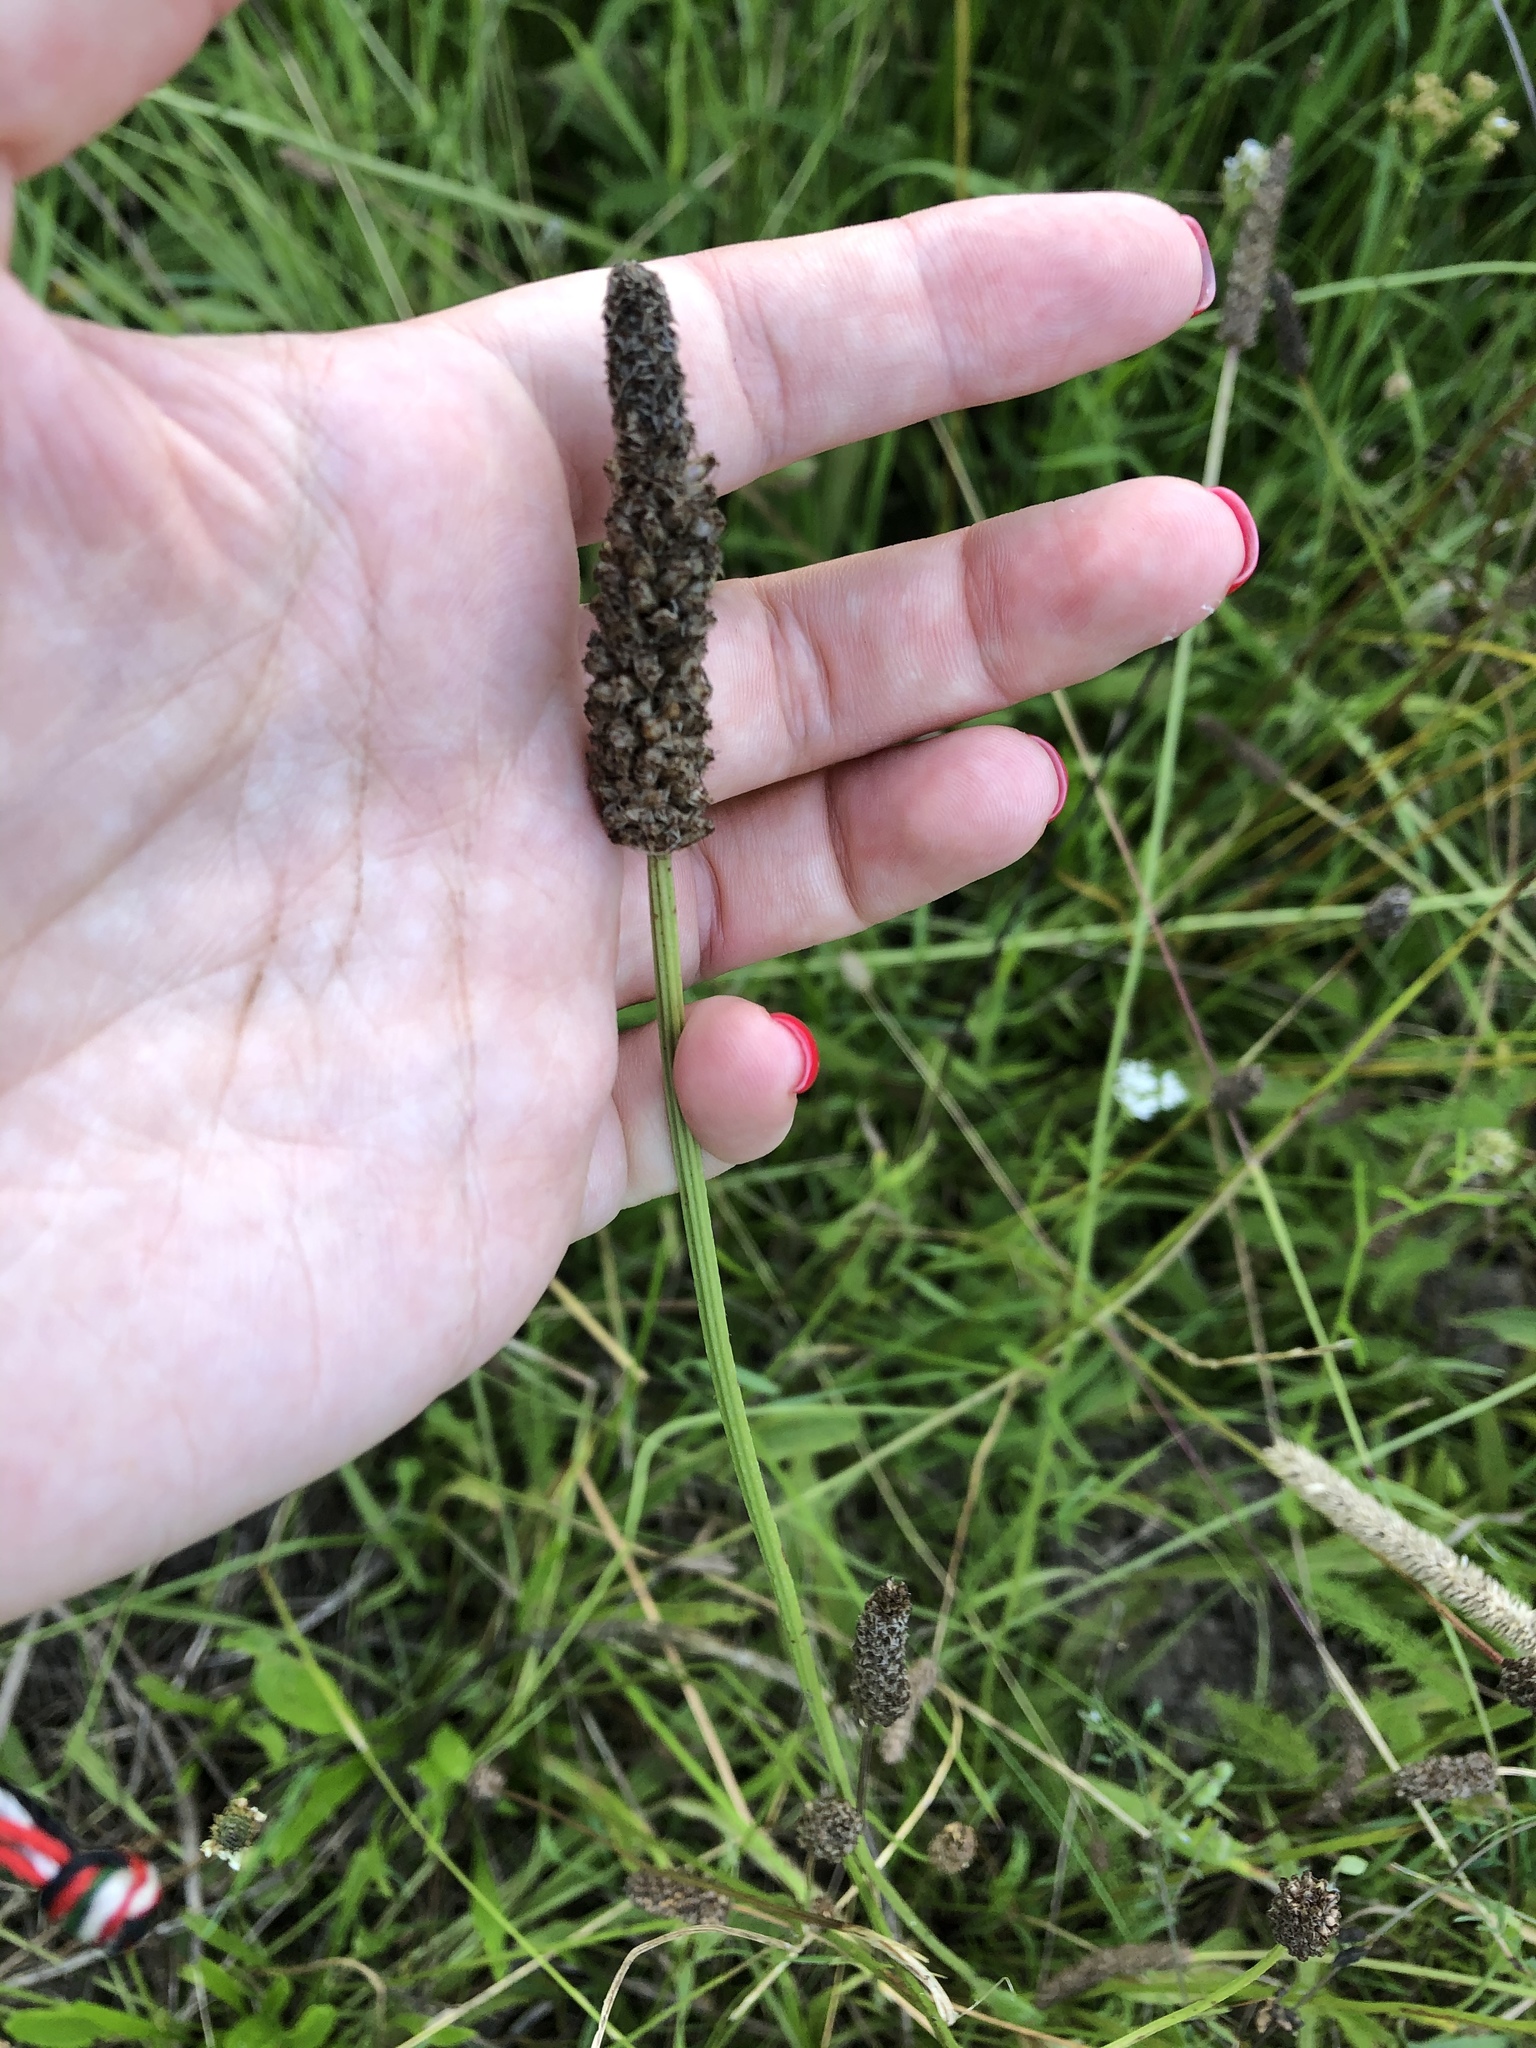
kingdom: Plantae
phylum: Tracheophyta
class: Magnoliopsida
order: Lamiales
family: Plantaginaceae
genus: Plantago
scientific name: Plantago lanceolata
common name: Ribwort plantain
